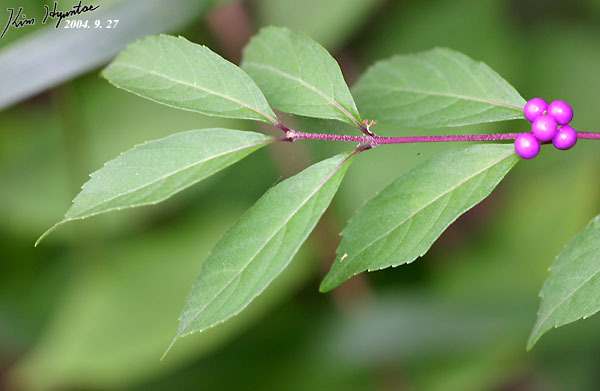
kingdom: Plantae
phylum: Tracheophyta
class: Magnoliopsida
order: Lamiales
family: Lamiaceae
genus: Callicarpa
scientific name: Callicarpa dichotoma
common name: Purple beauty-berry
